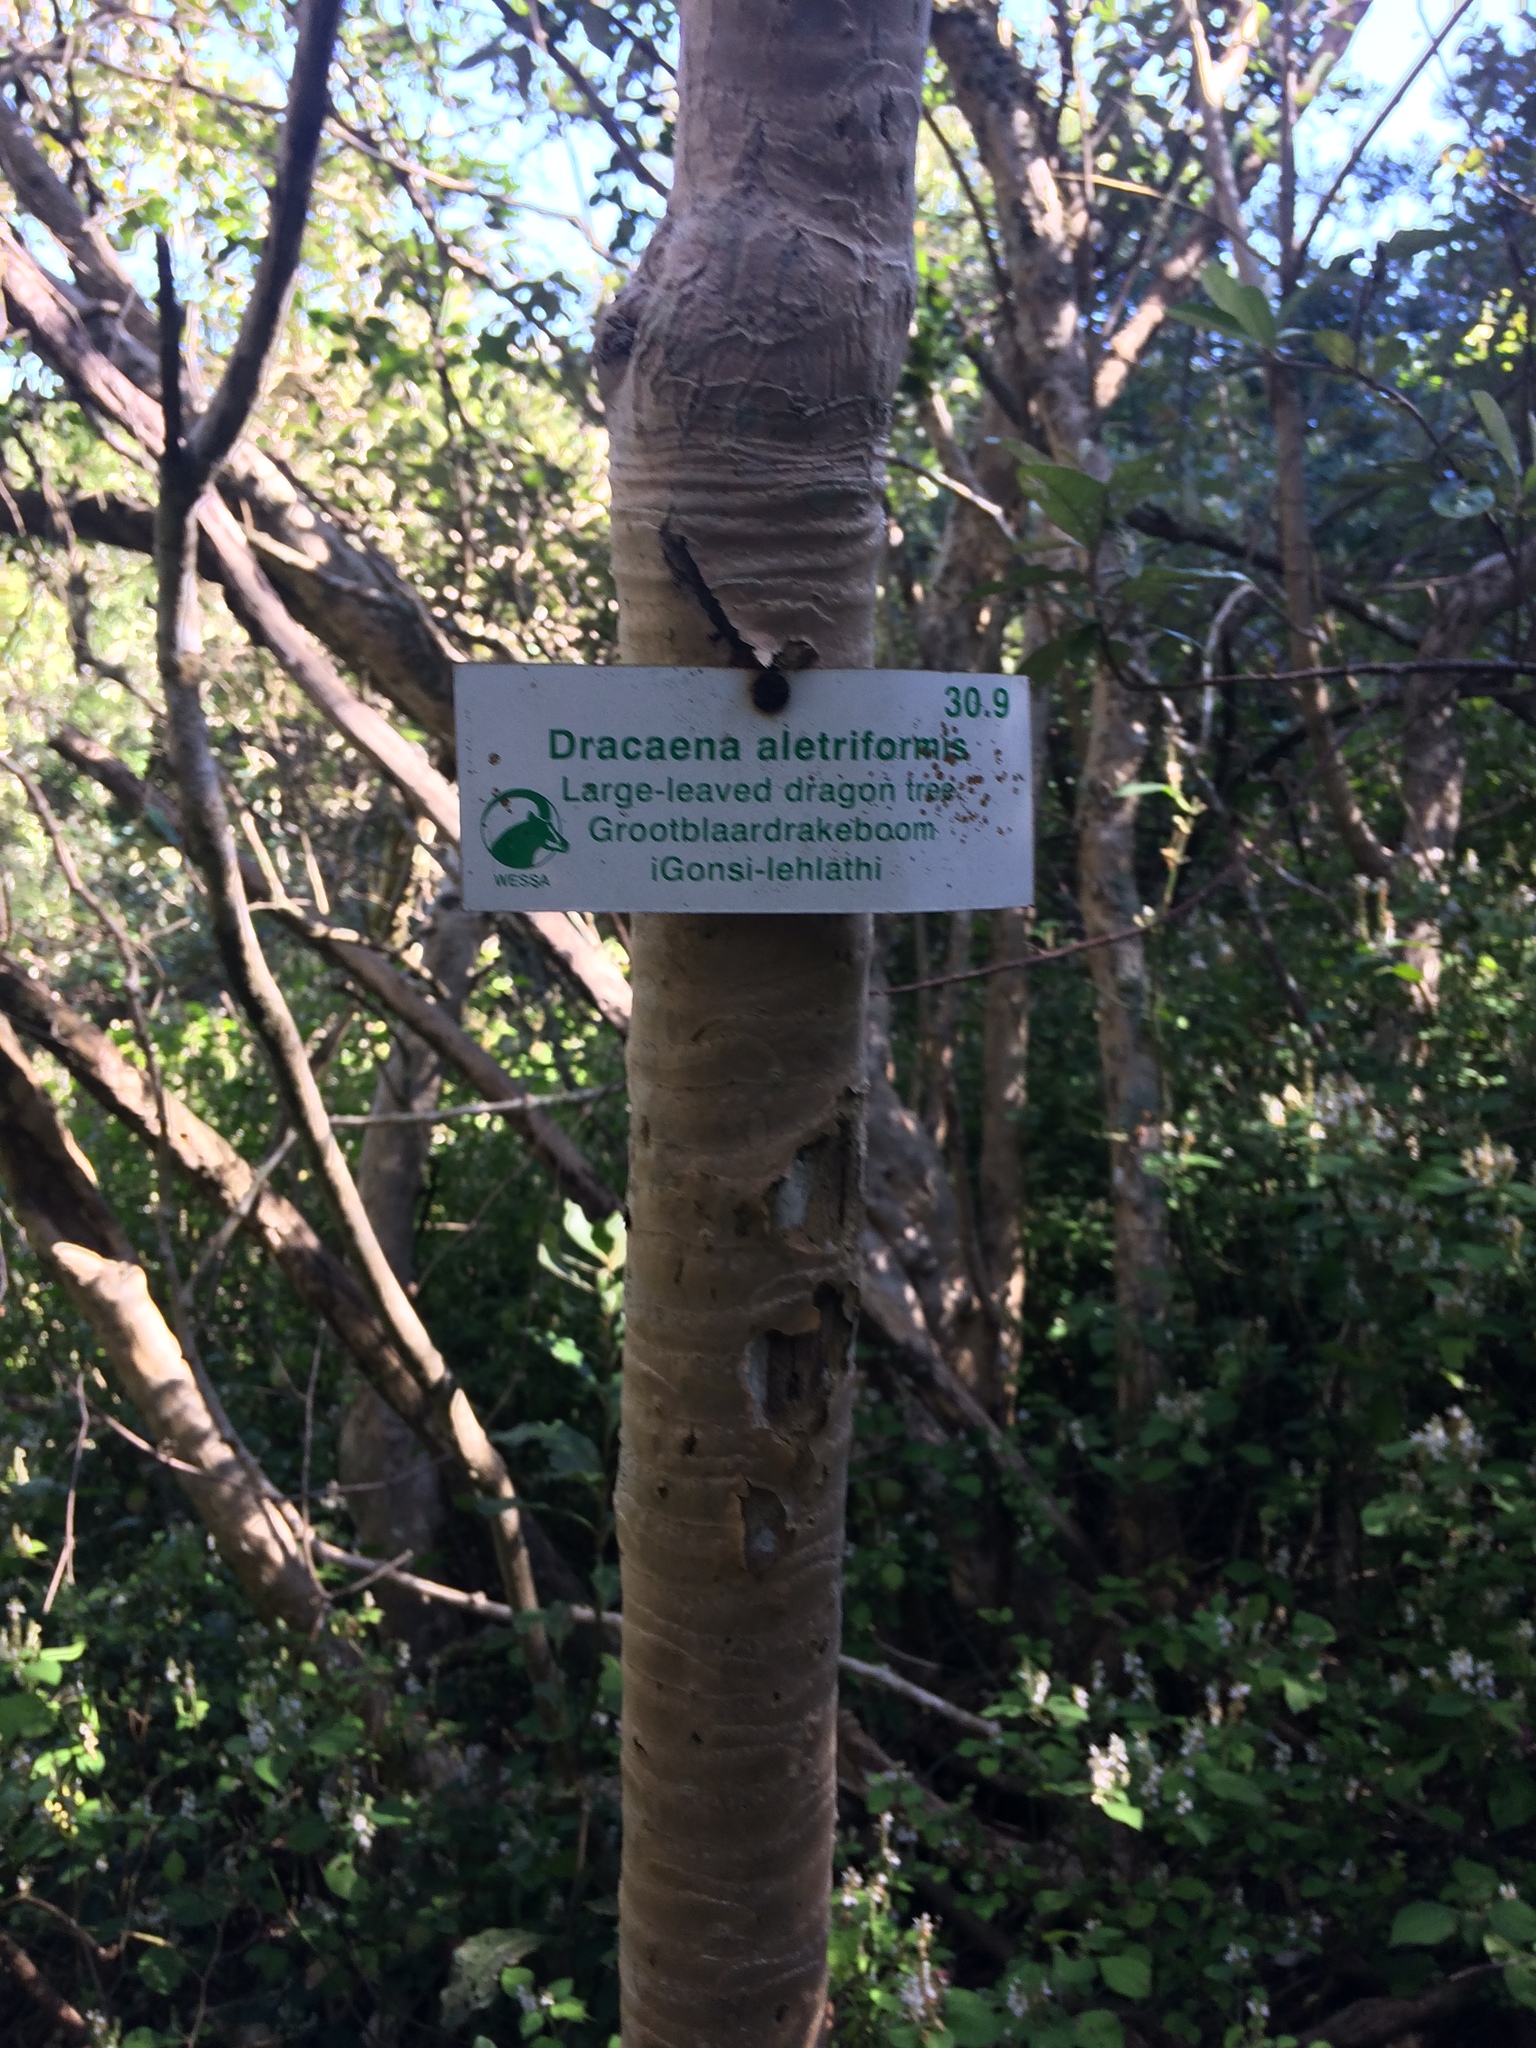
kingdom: Plantae
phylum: Tracheophyta
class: Liliopsida
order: Asparagales
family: Asparagaceae
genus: Dracaena
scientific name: Dracaena aletriformis
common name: Large-leaved dragon tree
